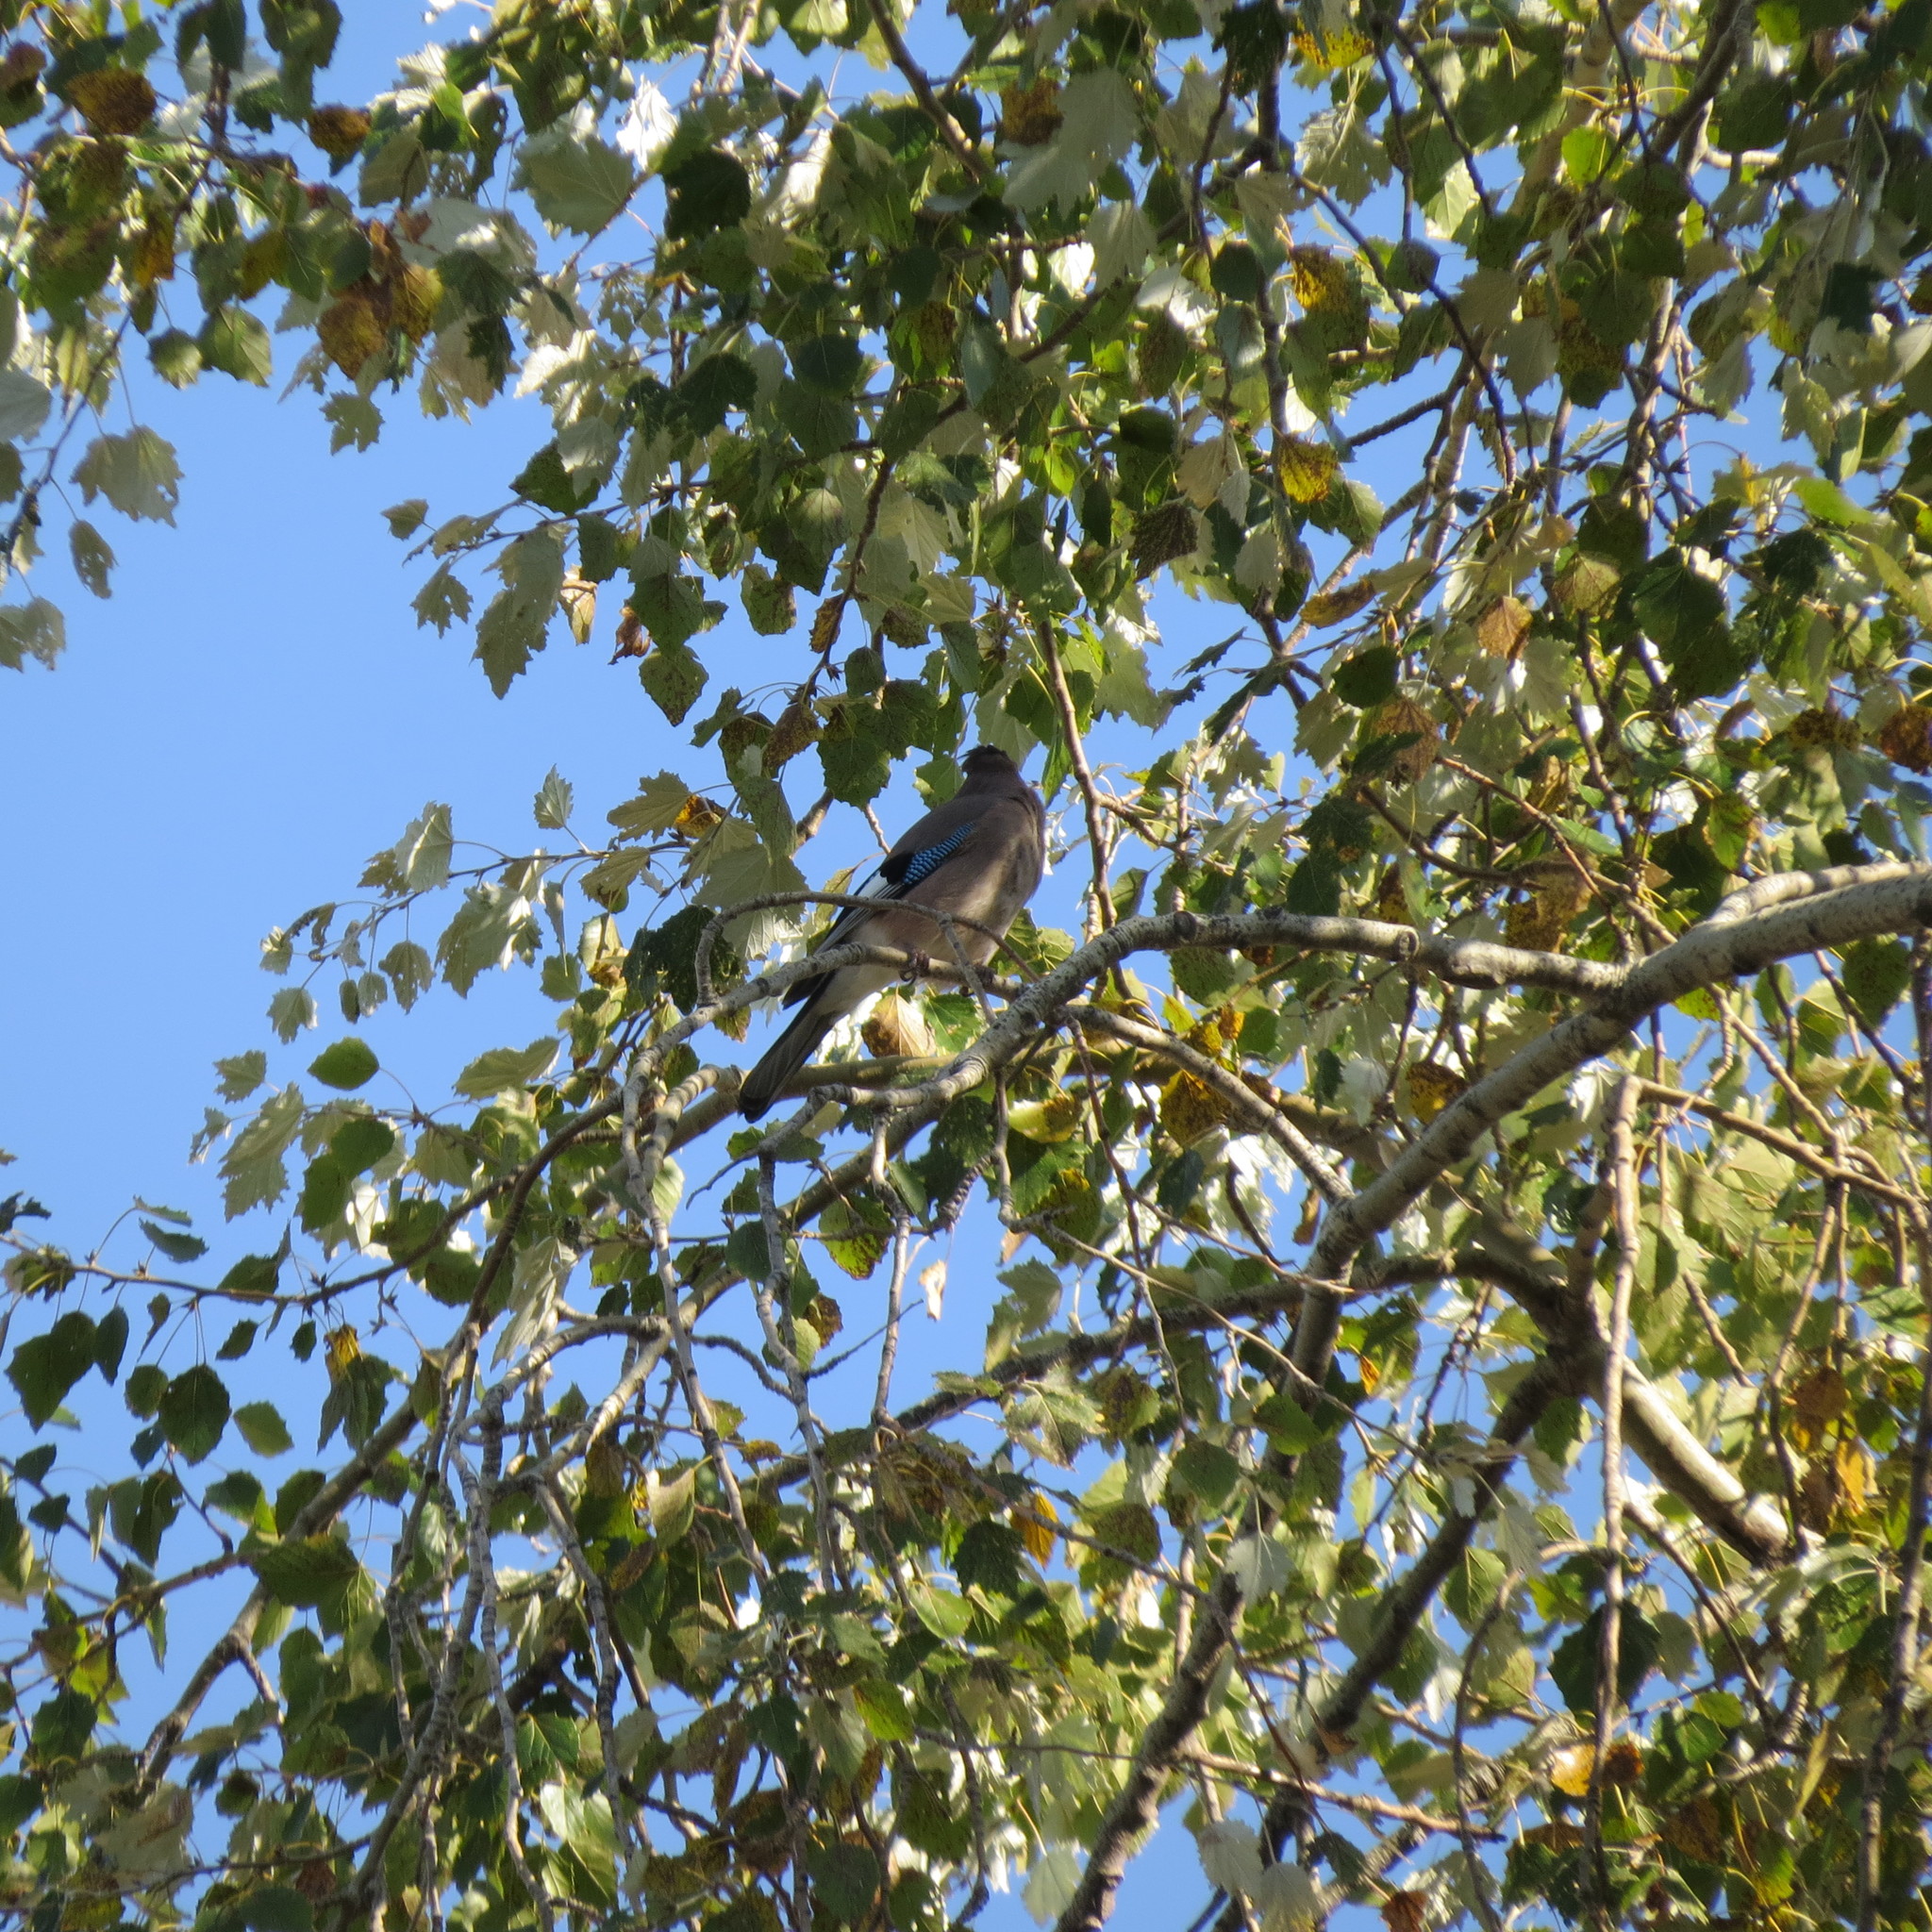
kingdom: Animalia
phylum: Chordata
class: Aves
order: Passeriformes
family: Corvidae
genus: Garrulus
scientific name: Garrulus glandarius
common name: Eurasian jay
